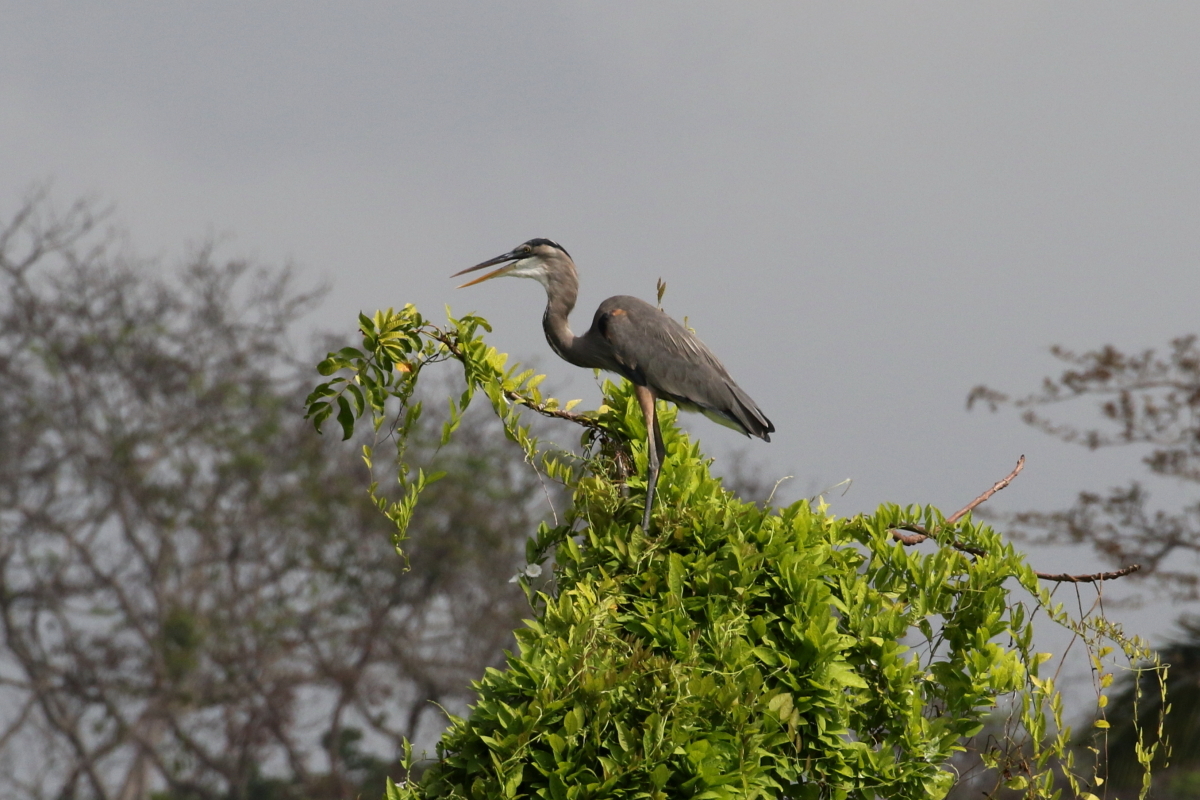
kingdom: Animalia
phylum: Chordata
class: Aves
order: Pelecaniformes
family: Ardeidae
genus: Ardea
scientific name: Ardea herodias
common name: Great blue heron
